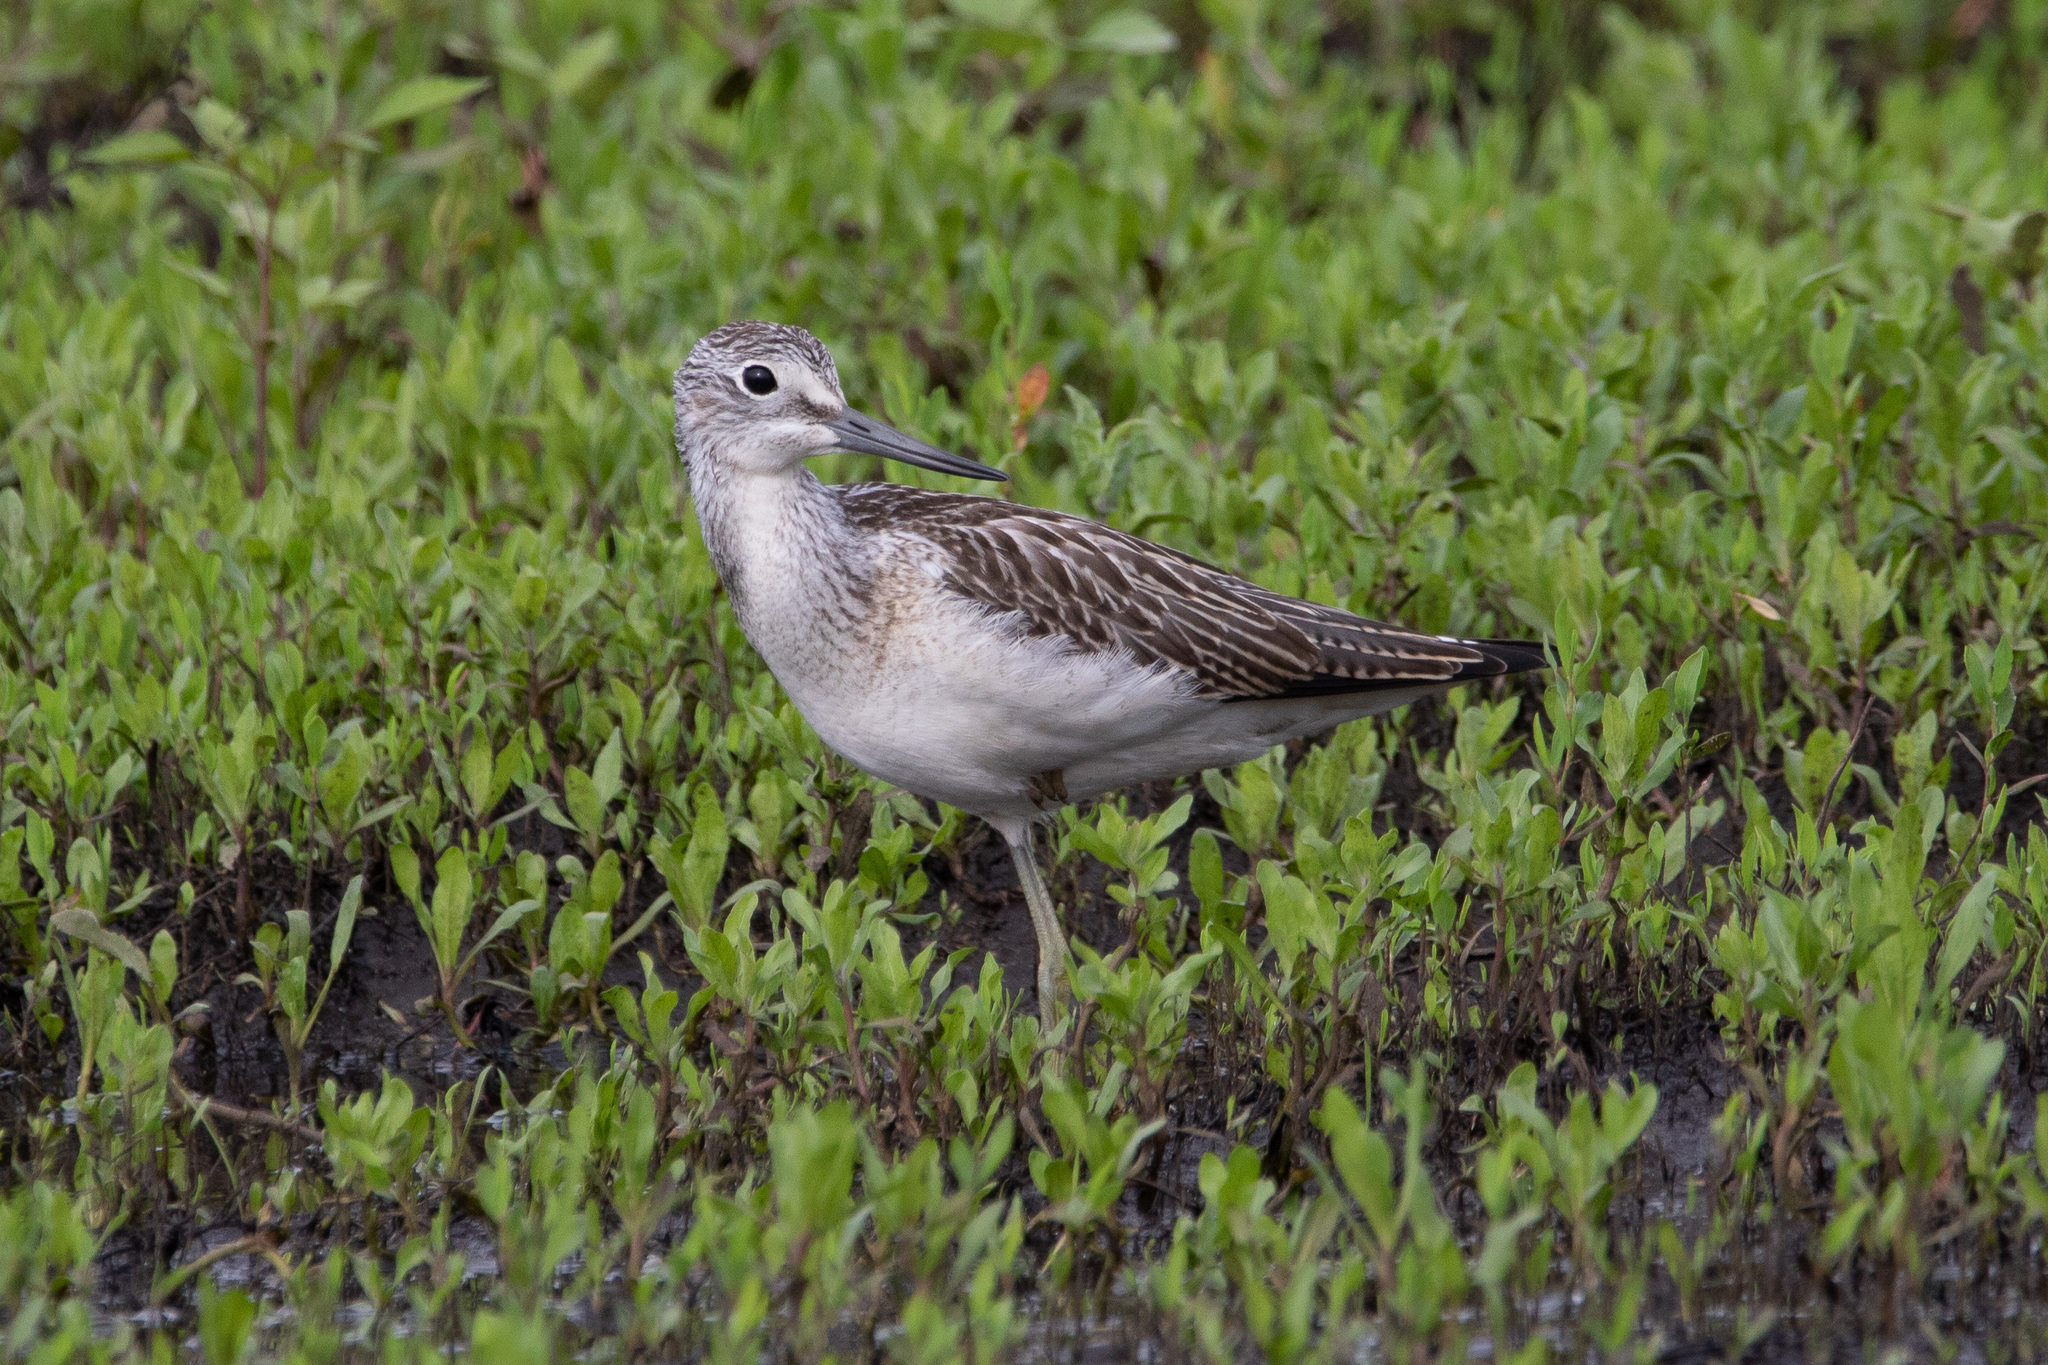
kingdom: Animalia
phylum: Chordata
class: Aves
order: Charadriiformes
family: Scolopacidae
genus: Tringa
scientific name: Tringa nebularia
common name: Common greenshank
